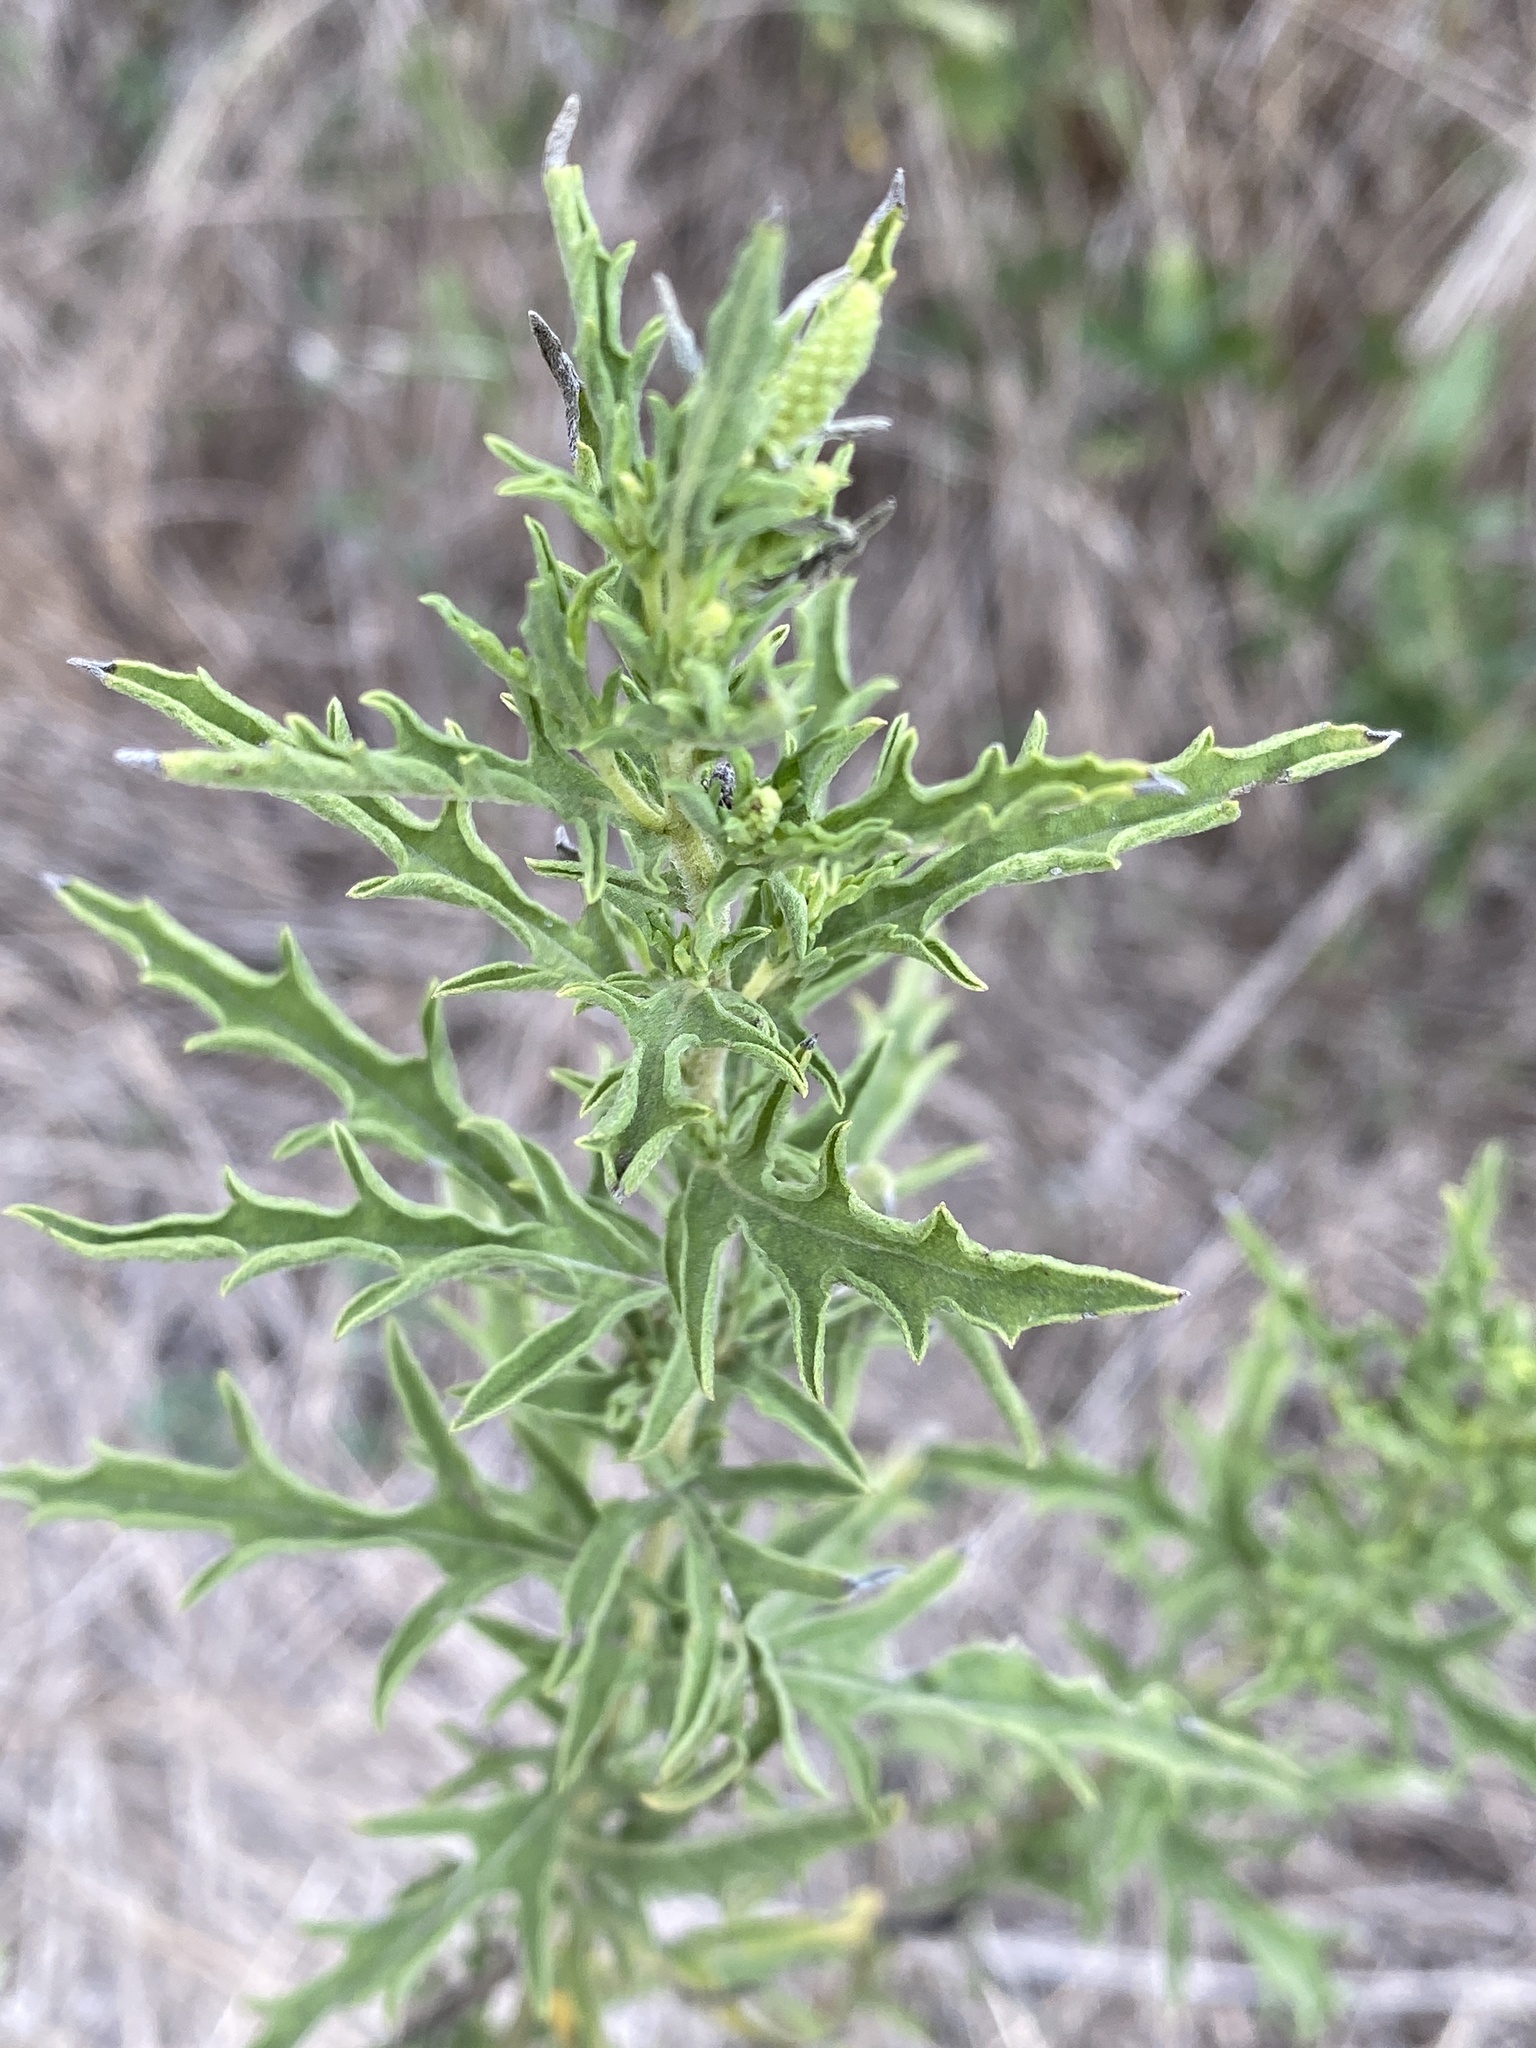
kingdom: Plantae
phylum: Tracheophyta
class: Magnoliopsida
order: Asterales
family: Asteraceae
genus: Ambrosia
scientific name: Ambrosia psilostachya
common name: Perennial ragweed
